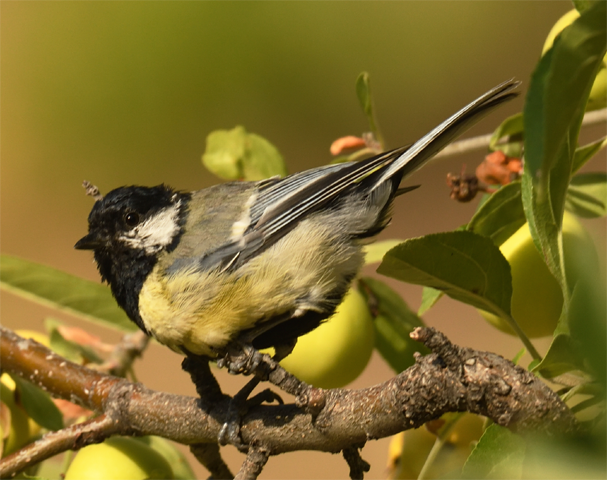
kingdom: Animalia
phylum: Chordata
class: Aves
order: Passeriformes
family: Paridae
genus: Parus
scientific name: Parus major
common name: Great tit
